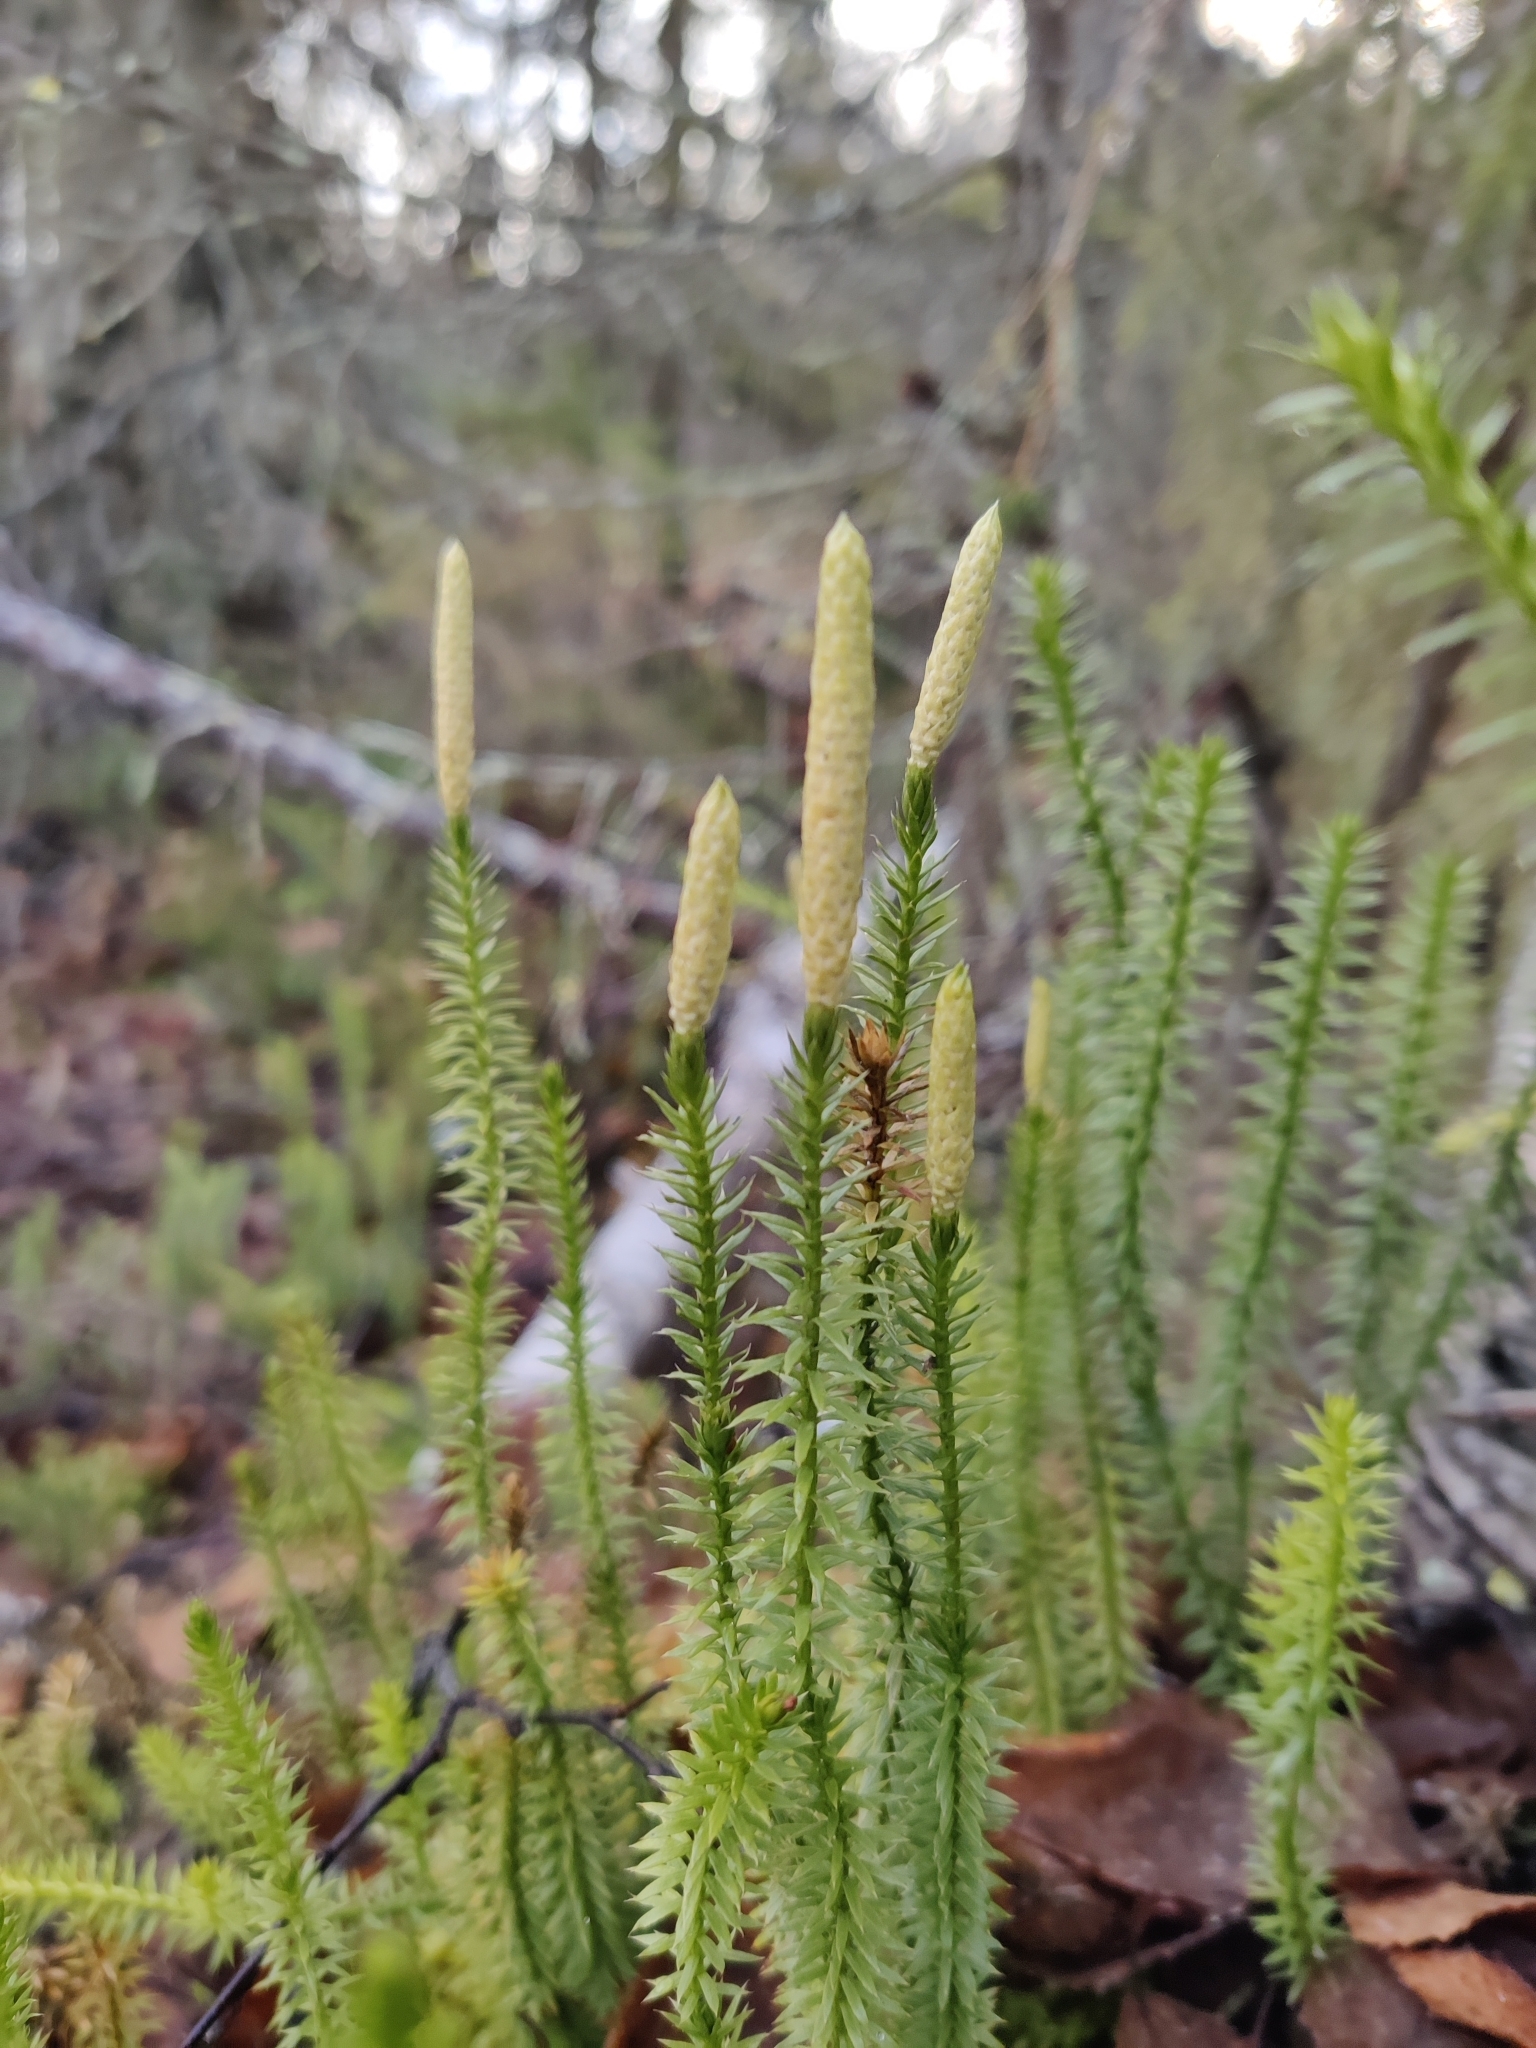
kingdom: Plantae
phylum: Tracheophyta
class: Lycopodiopsida
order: Lycopodiales
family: Lycopodiaceae
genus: Spinulum
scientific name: Spinulum annotinum
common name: Interrupted club-moss
